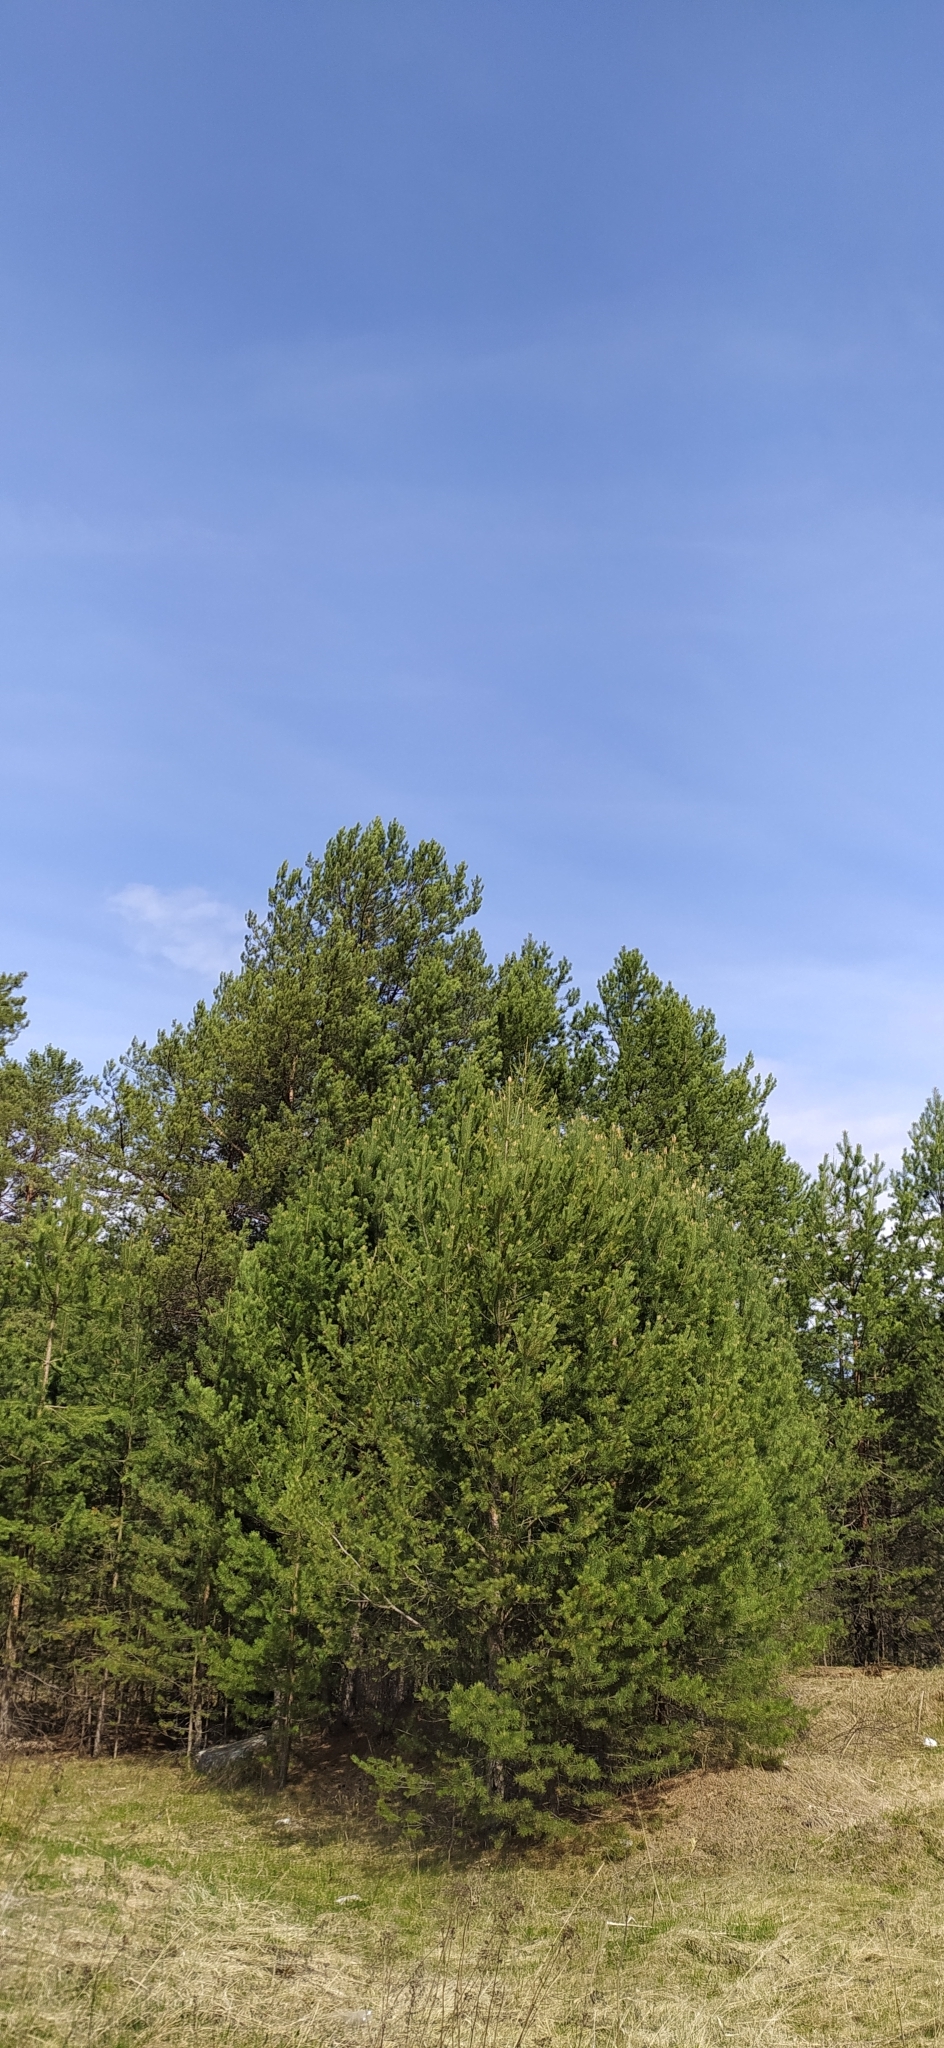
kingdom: Plantae
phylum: Tracheophyta
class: Pinopsida
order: Pinales
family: Pinaceae
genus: Pinus
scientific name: Pinus sylvestris
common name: Scots pine
